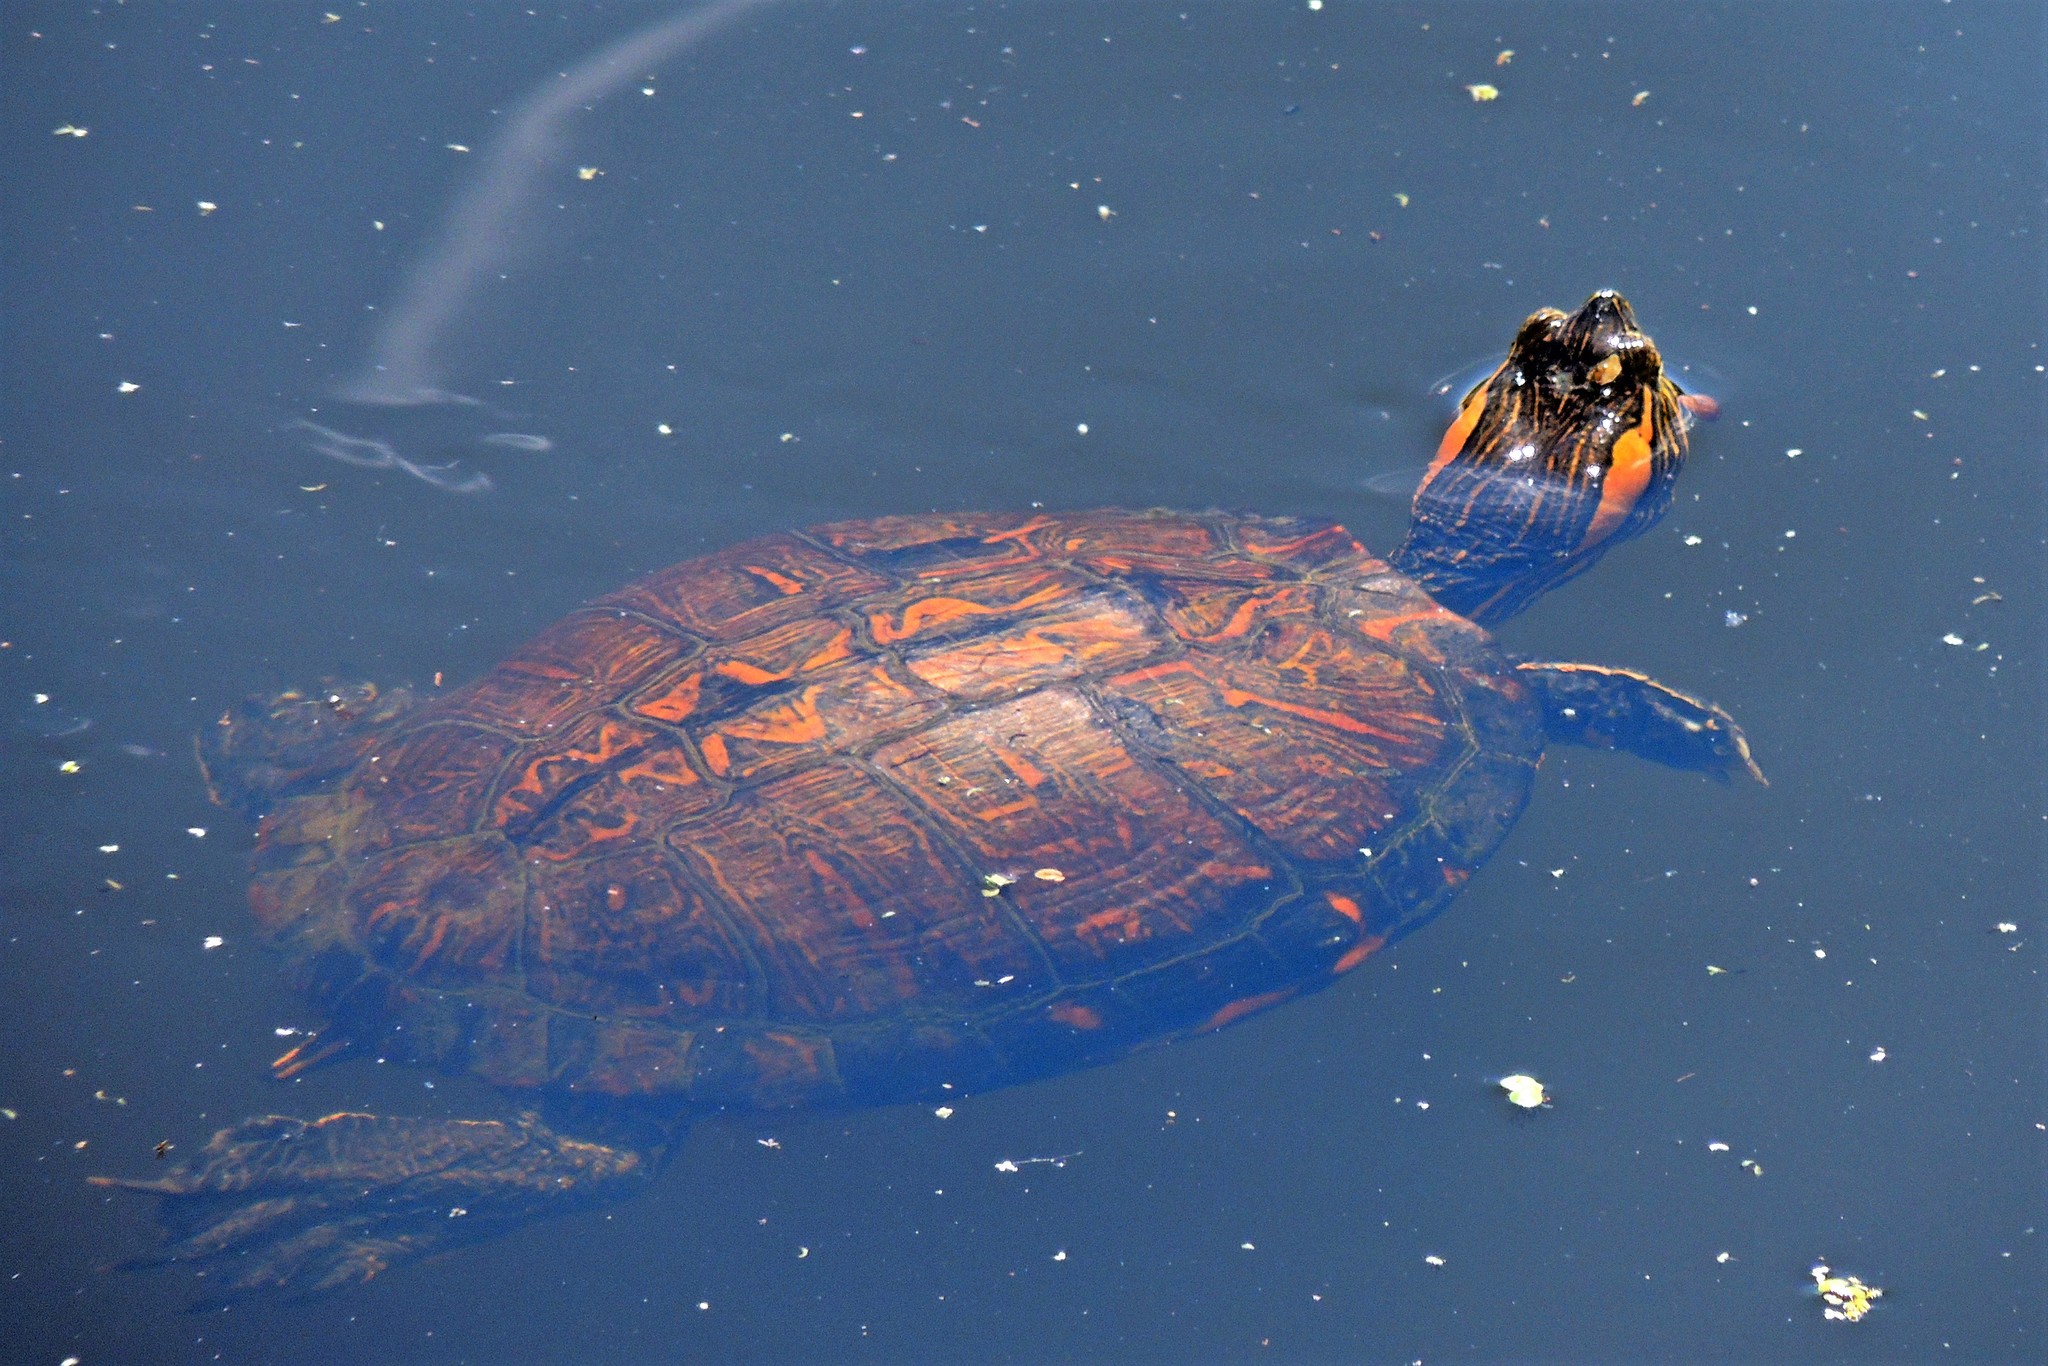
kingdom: Animalia
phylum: Chordata
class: Testudines
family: Emydidae
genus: Trachemys
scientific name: Trachemys dorbigni
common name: Black-bellied slider
